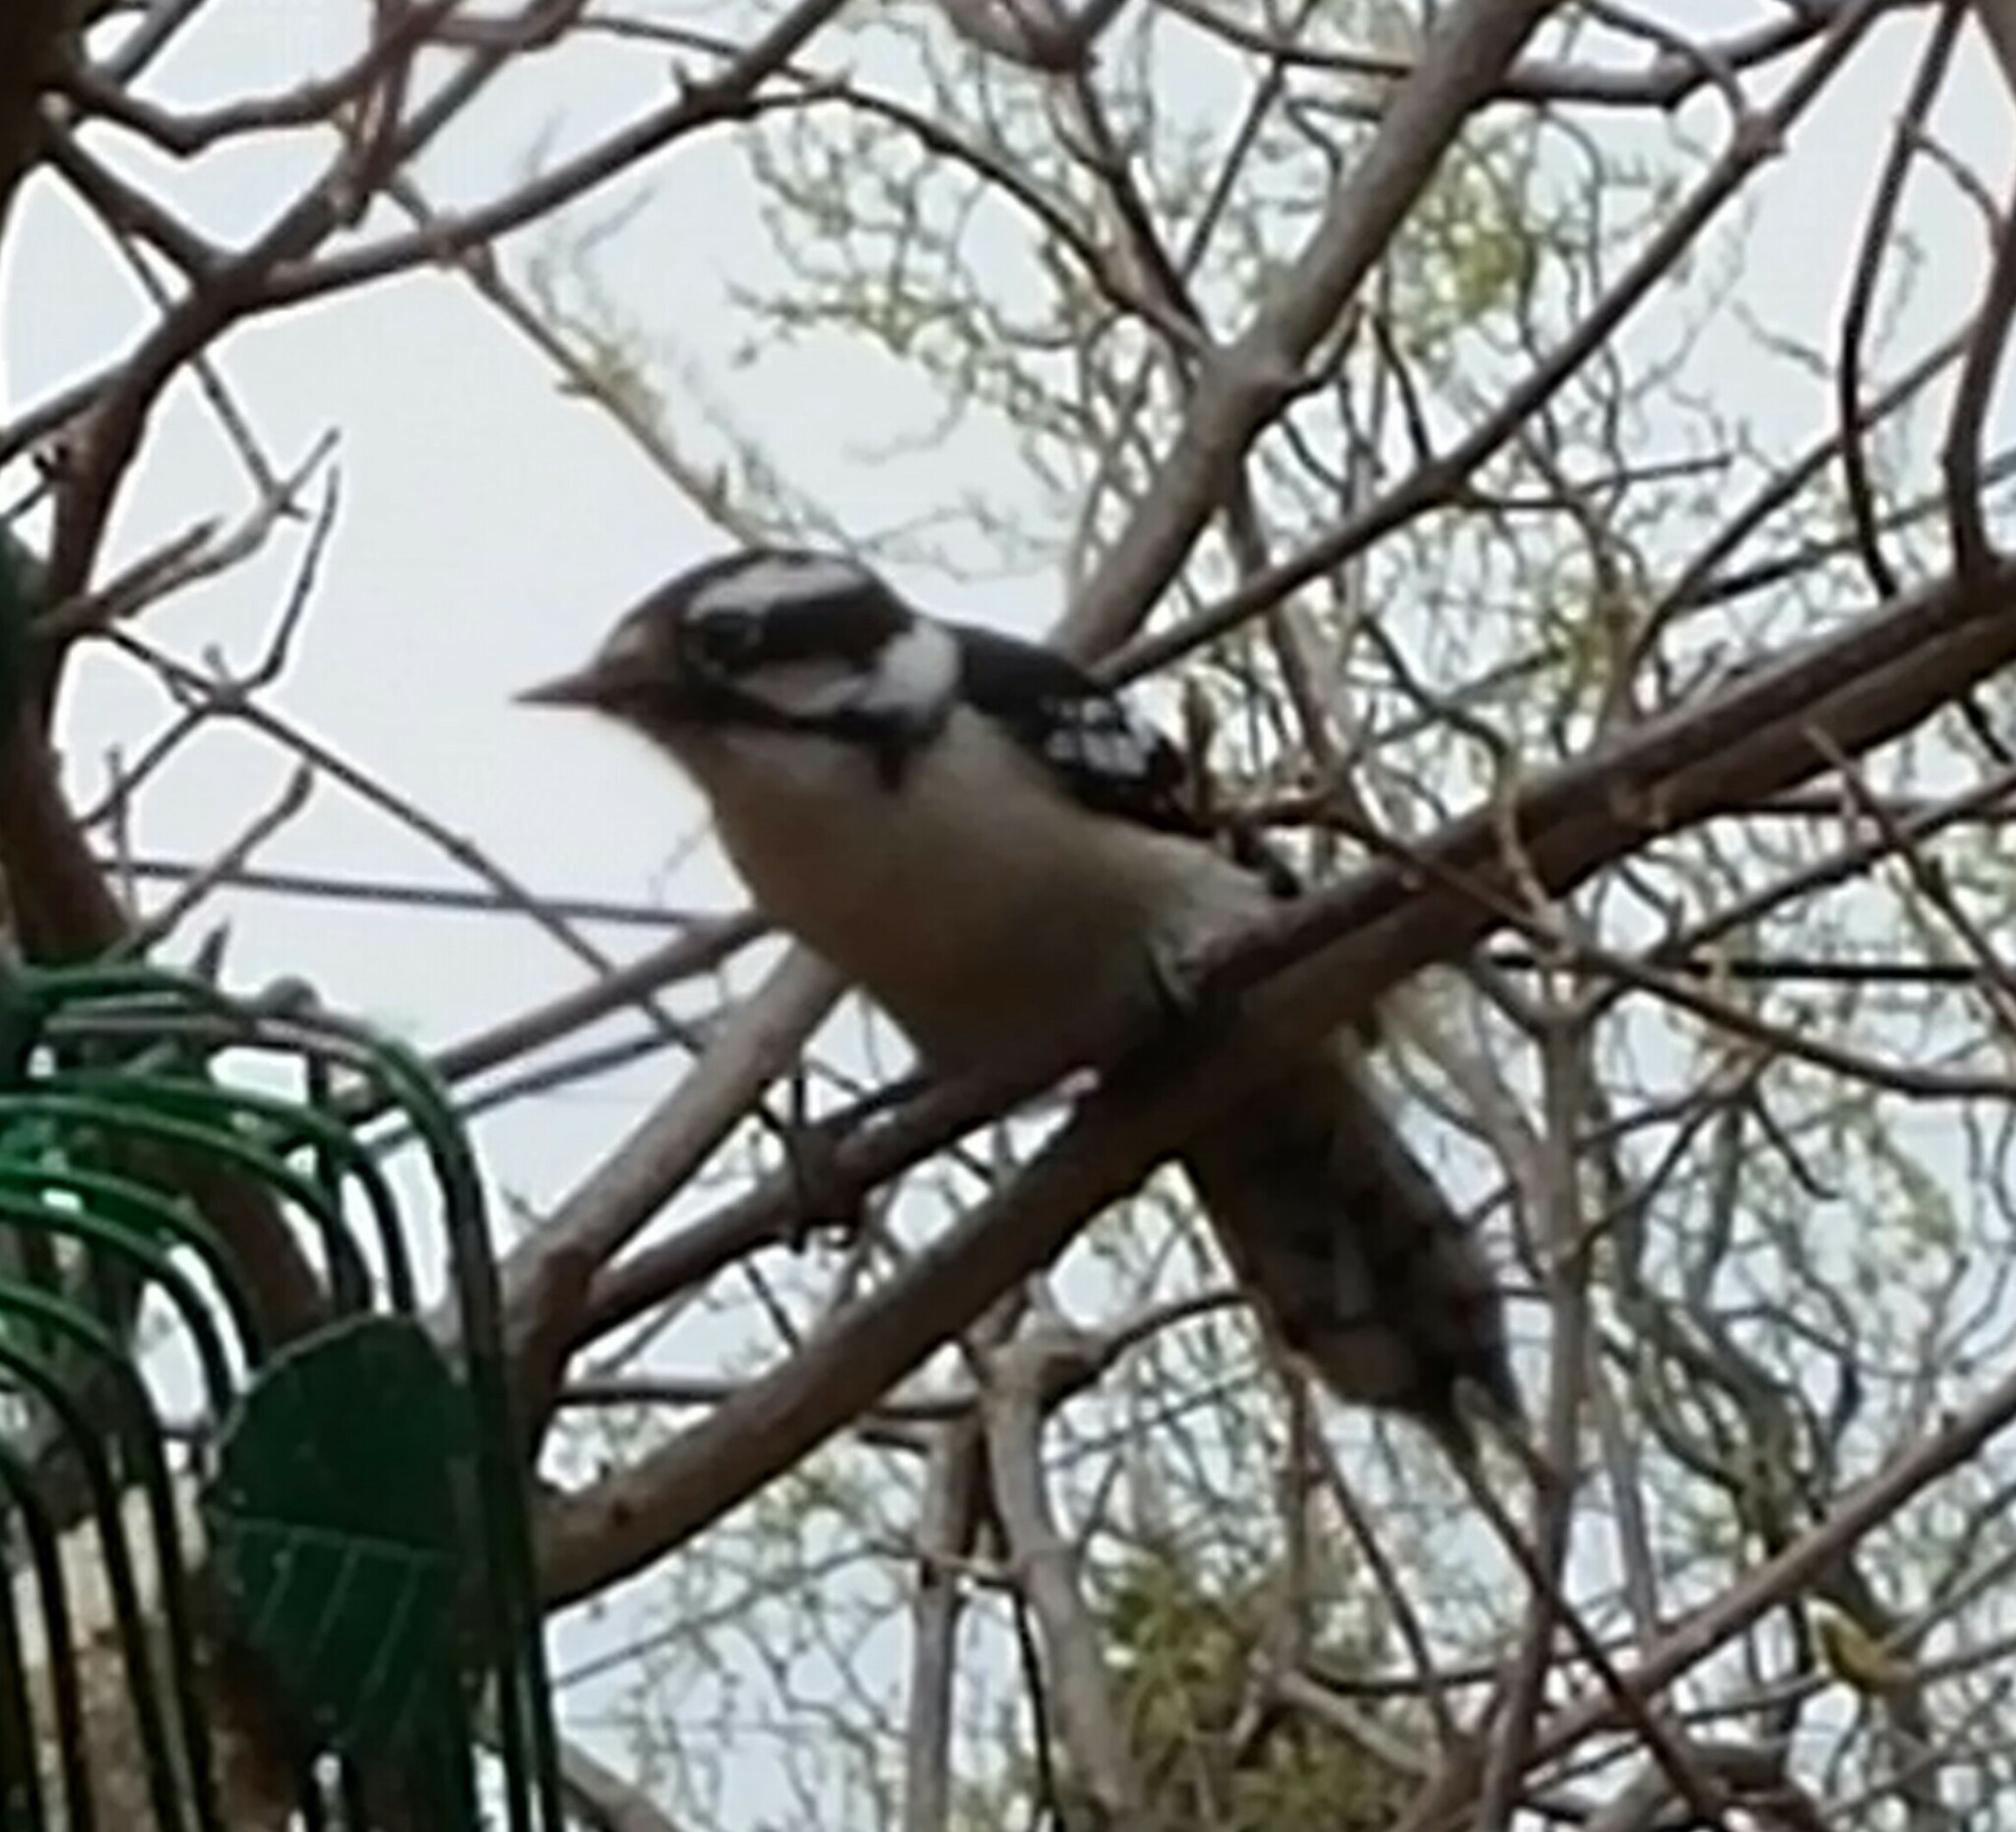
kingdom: Animalia
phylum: Chordata
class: Aves
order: Piciformes
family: Picidae
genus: Dryobates
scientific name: Dryobates pubescens
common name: Downy woodpecker
